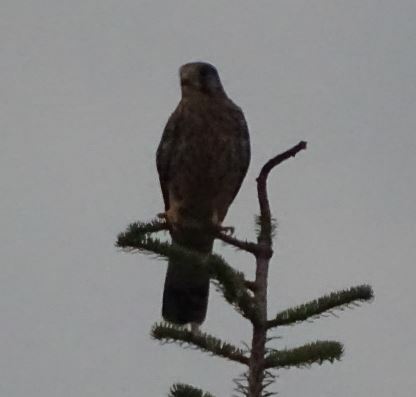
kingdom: Animalia
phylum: Chordata
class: Aves
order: Falconiformes
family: Falconidae
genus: Falco
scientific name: Falco tinnunculus
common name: Common kestrel
